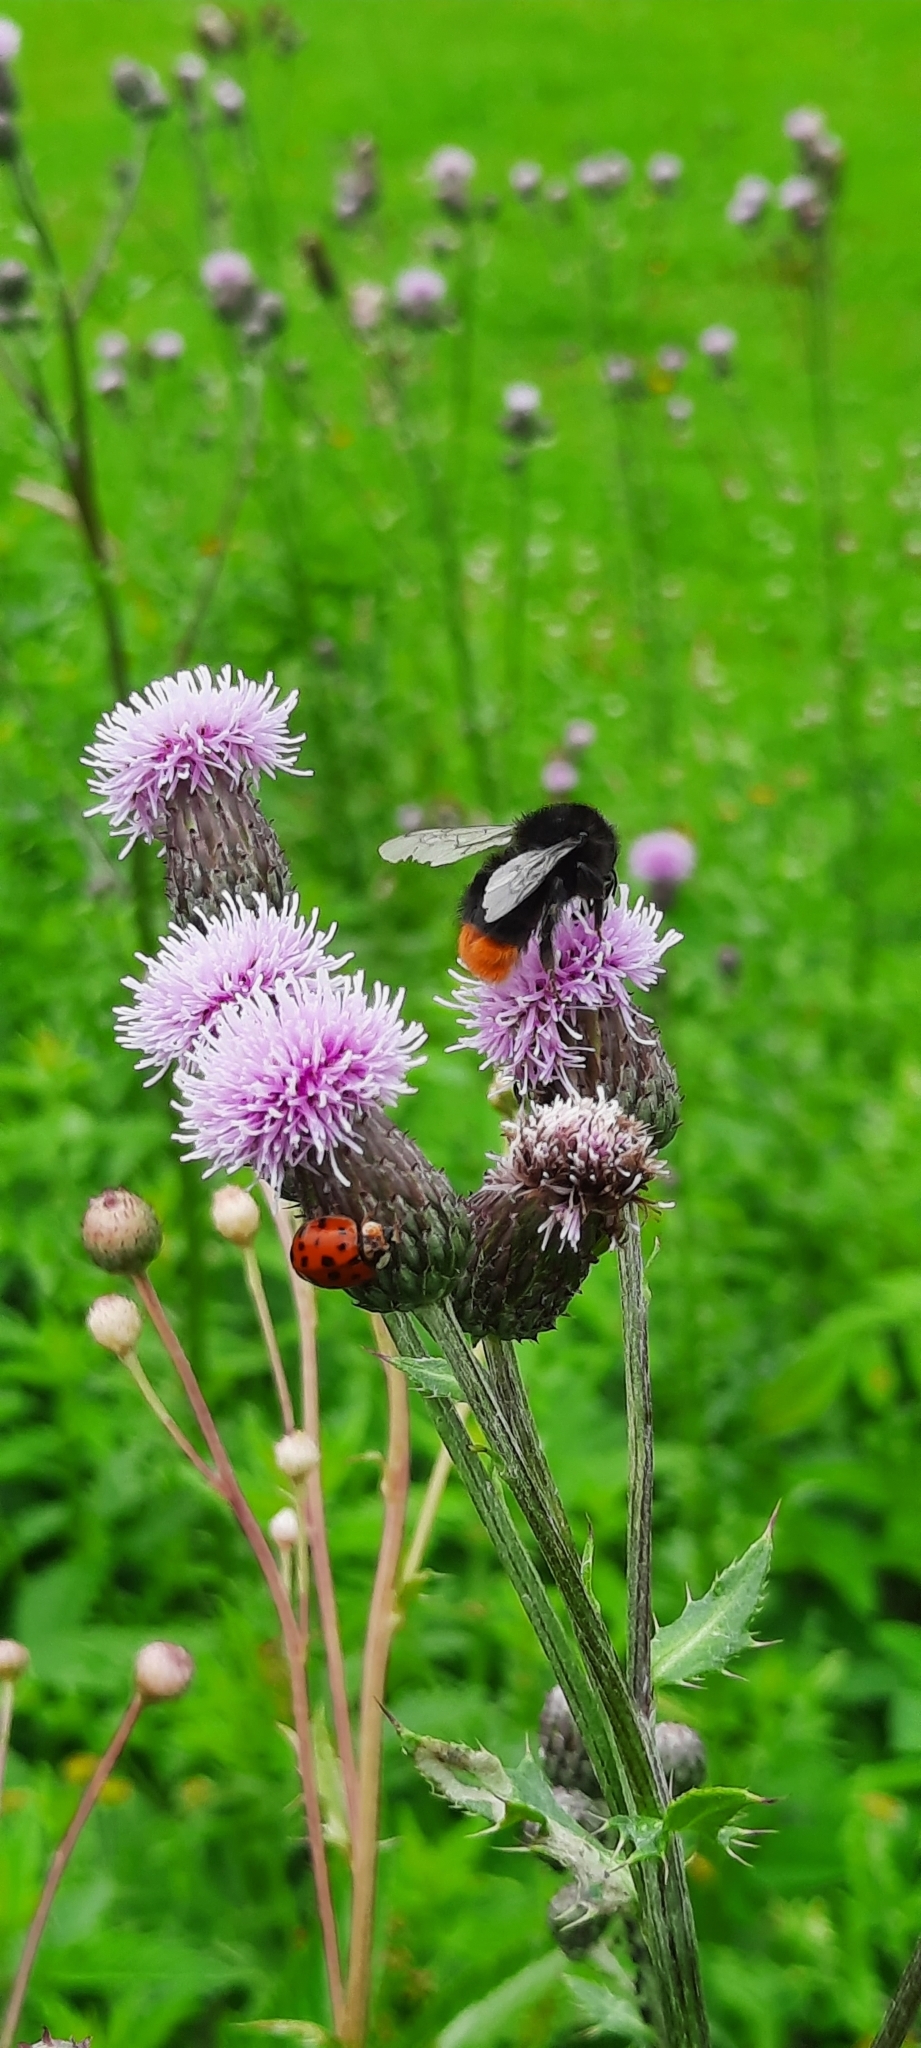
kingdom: Animalia
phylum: Arthropoda
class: Insecta
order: Coleoptera
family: Coccinellidae
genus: Harmonia
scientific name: Harmonia axyridis
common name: Harlequin ladybird
